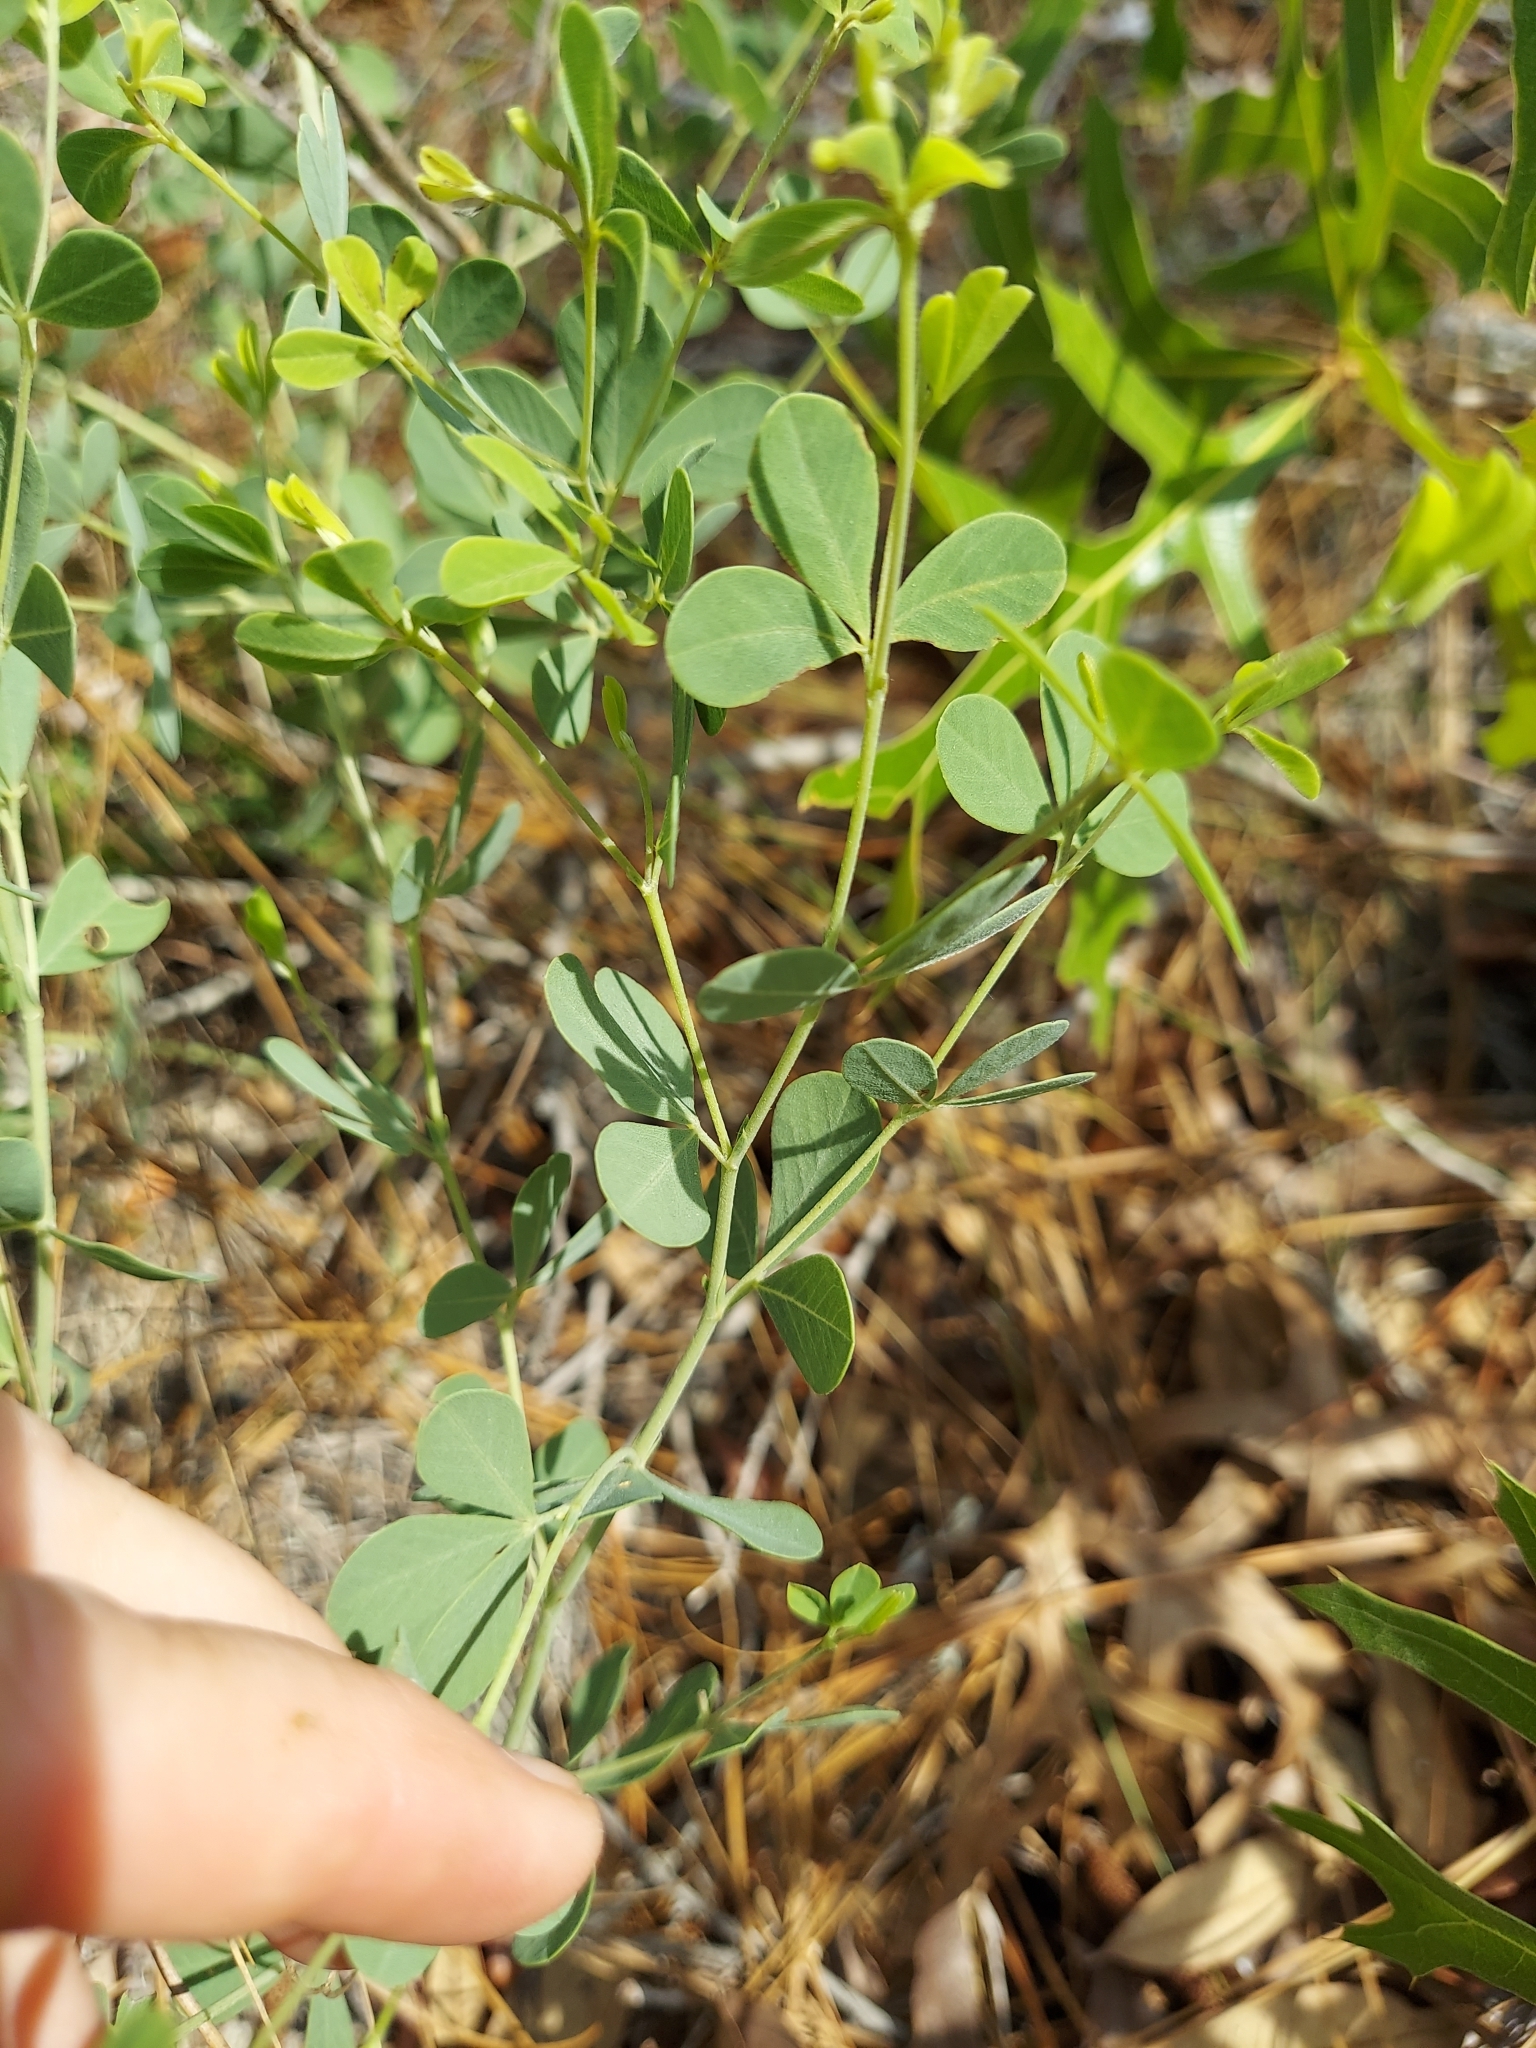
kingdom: Plantae
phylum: Tracheophyta
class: Magnoliopsida
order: Fabales
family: Fabaceae
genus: Baptisia
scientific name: Baptisia lecontei
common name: Pineland wild indigo
